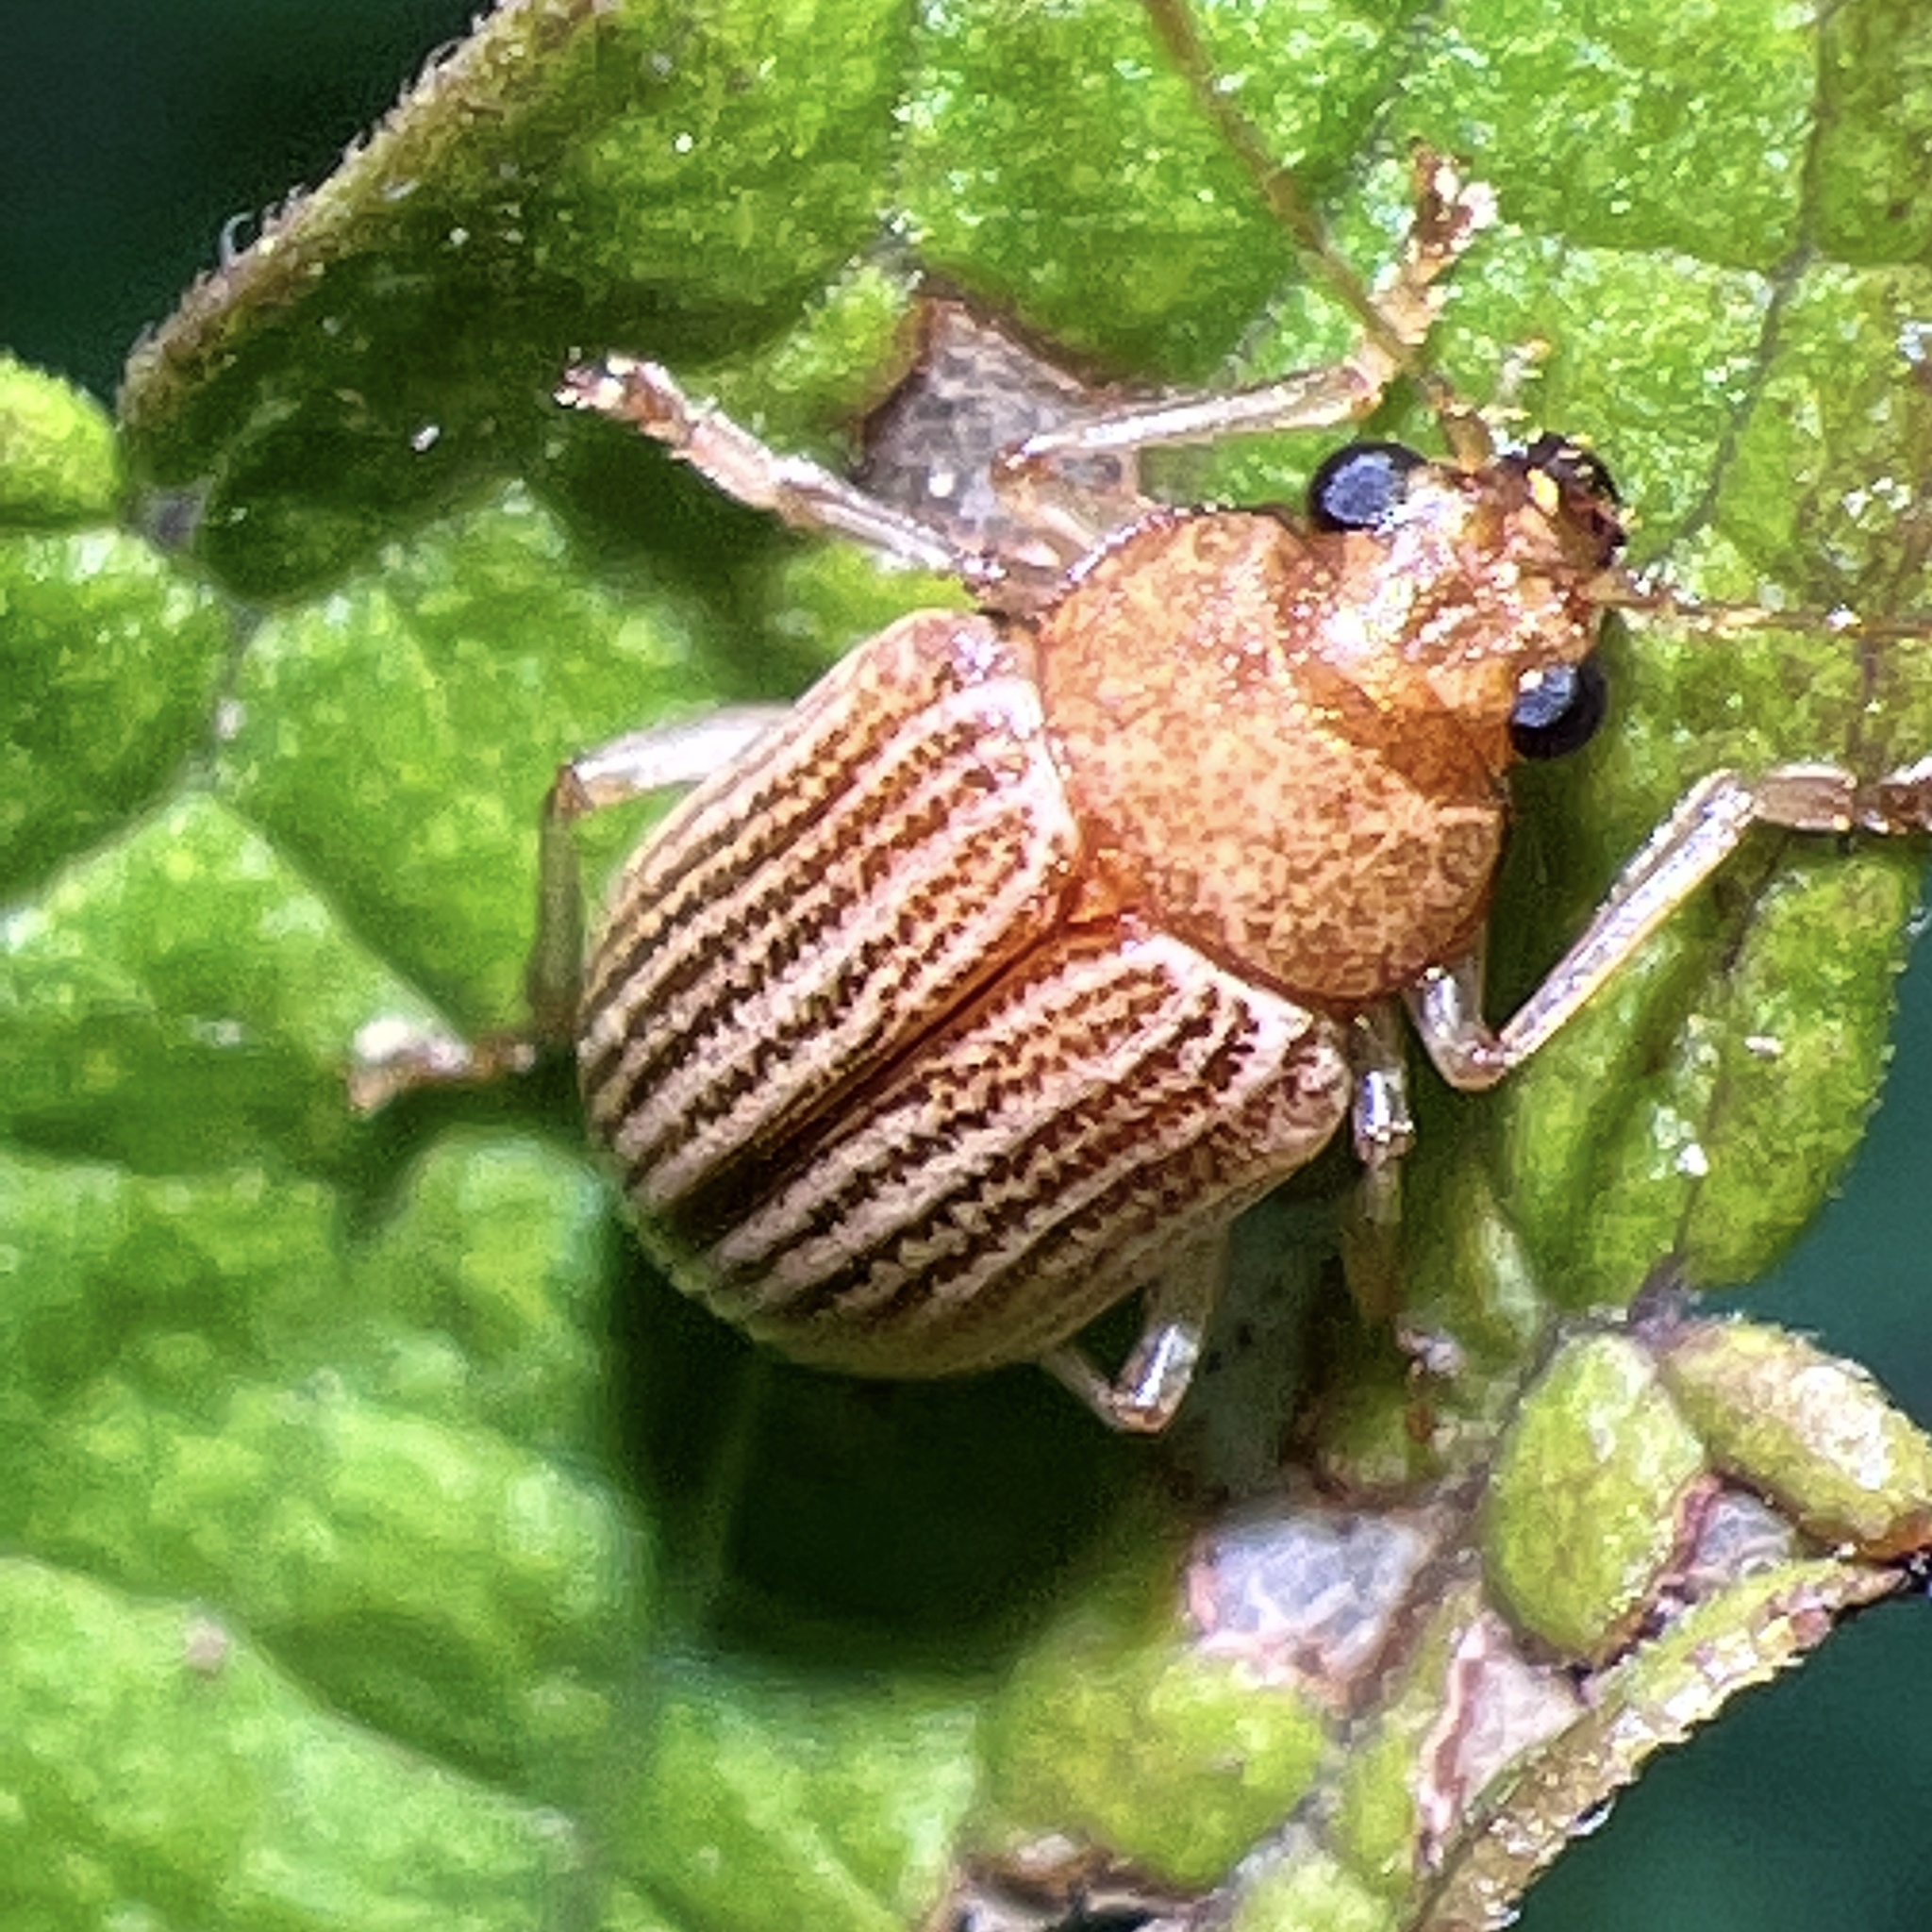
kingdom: Animalia
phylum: Arthropoda
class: Insecta
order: Coleoptera
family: Chrysomelidae
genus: Colaspis
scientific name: Colaspis brunnea
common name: Grape colaspis
